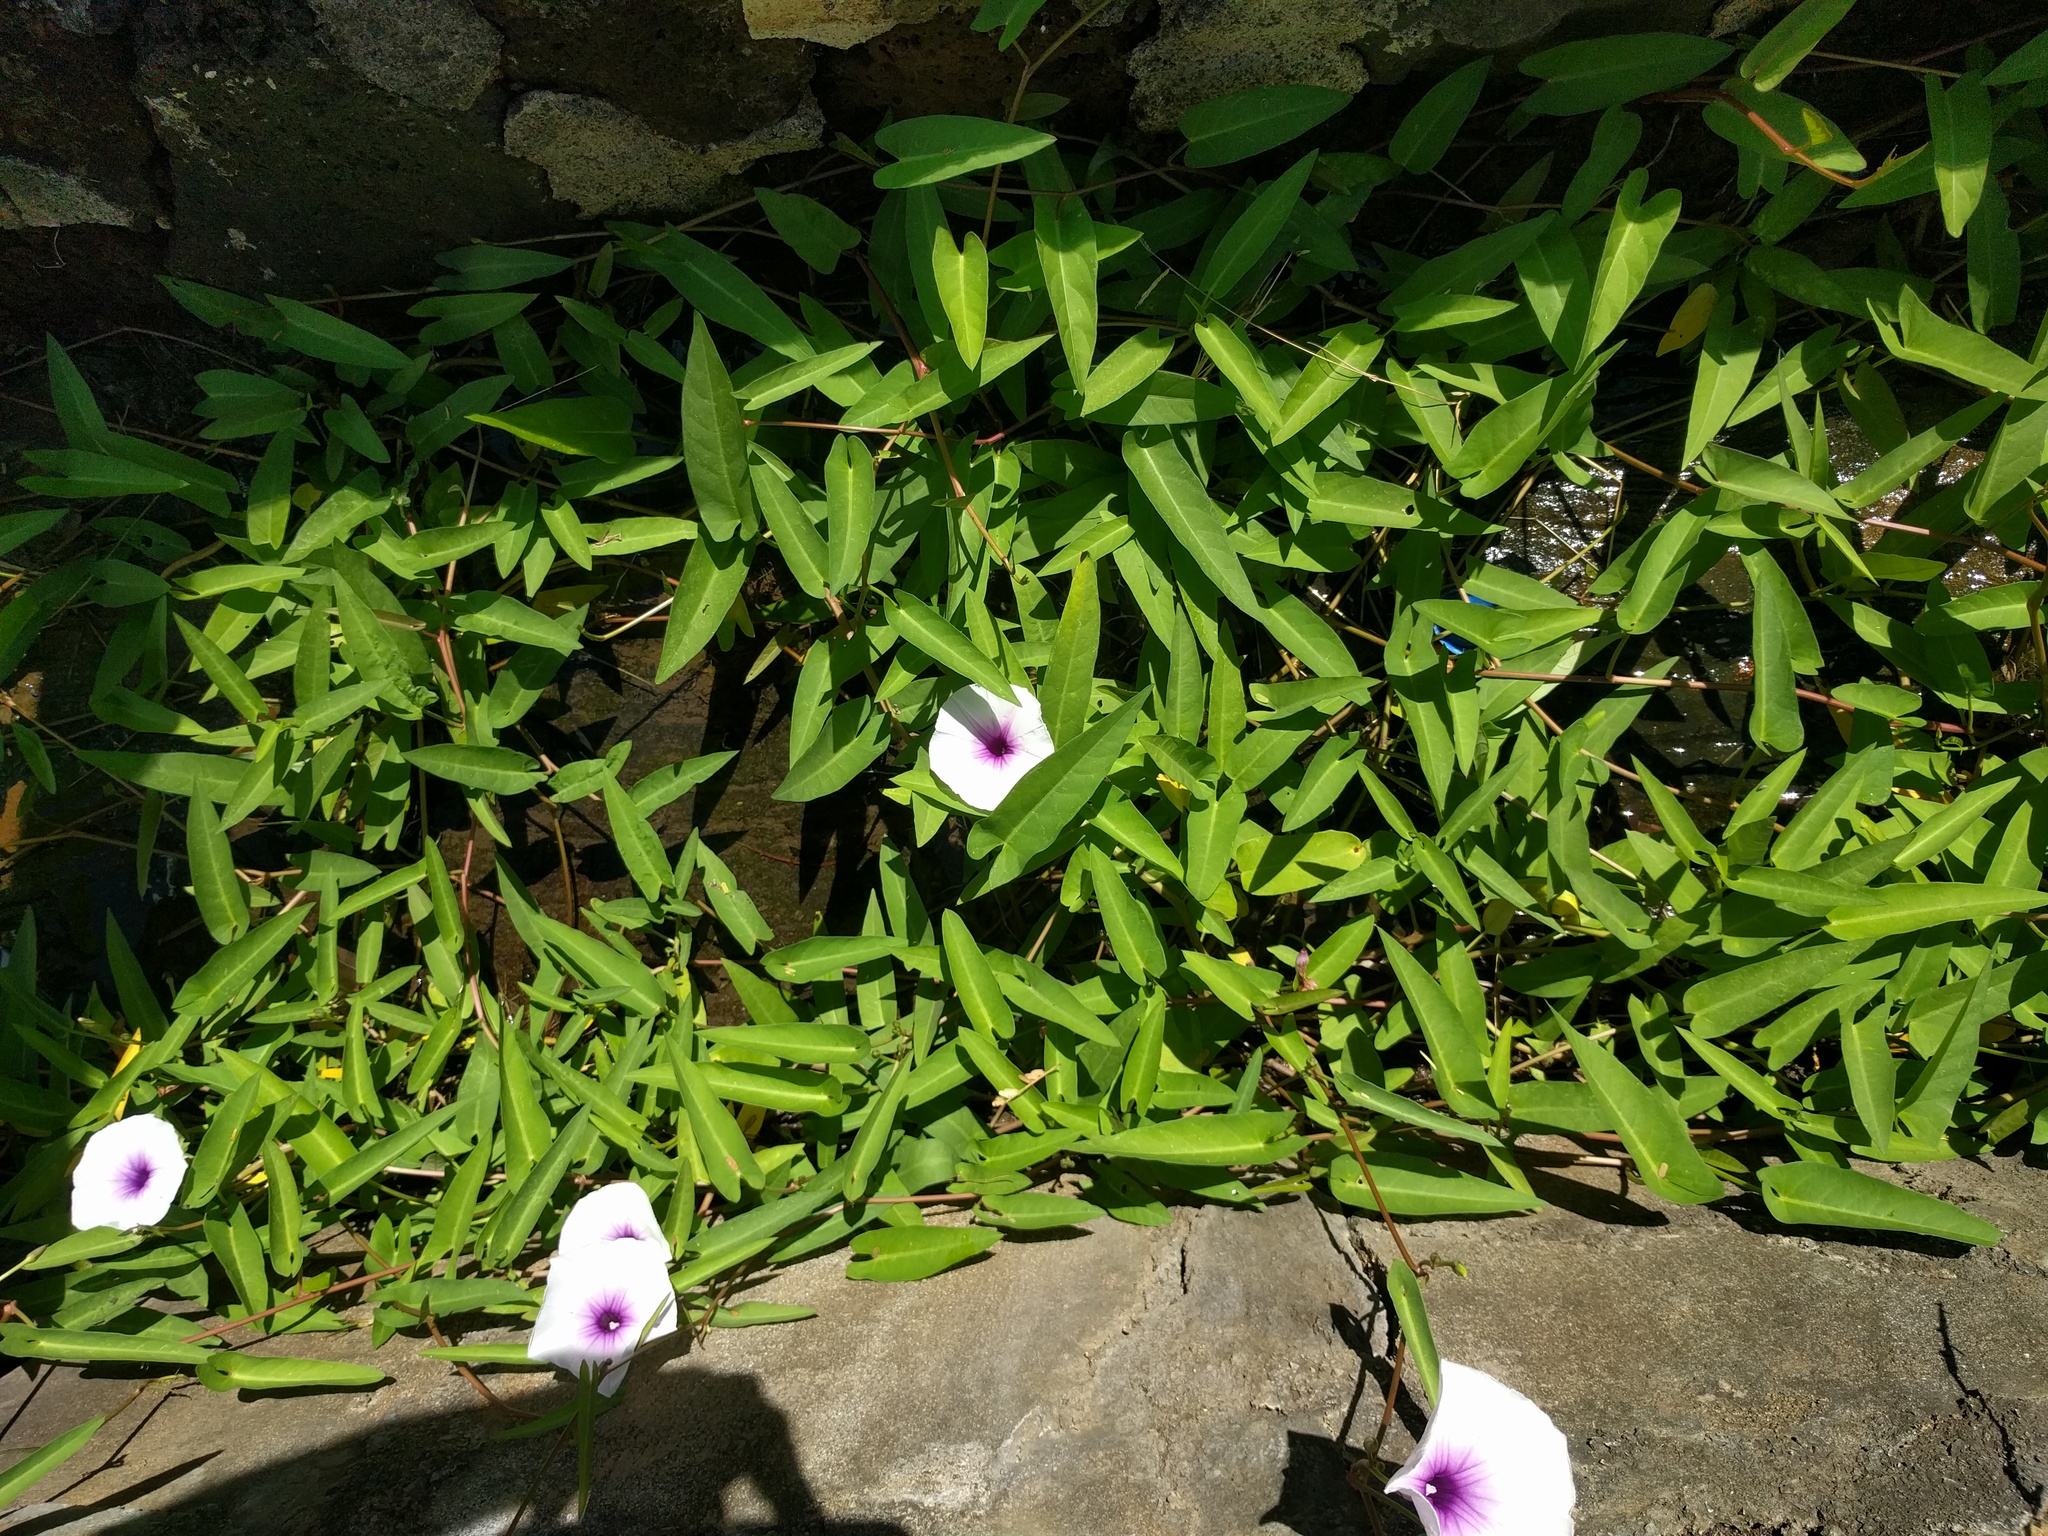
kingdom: Plantae
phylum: Tracheophyta
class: Magnoliopsida
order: Solanales
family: Convolvulaceae
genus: Ipomoea
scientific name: Ipomoea aquatica
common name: Swamp morning-glory
